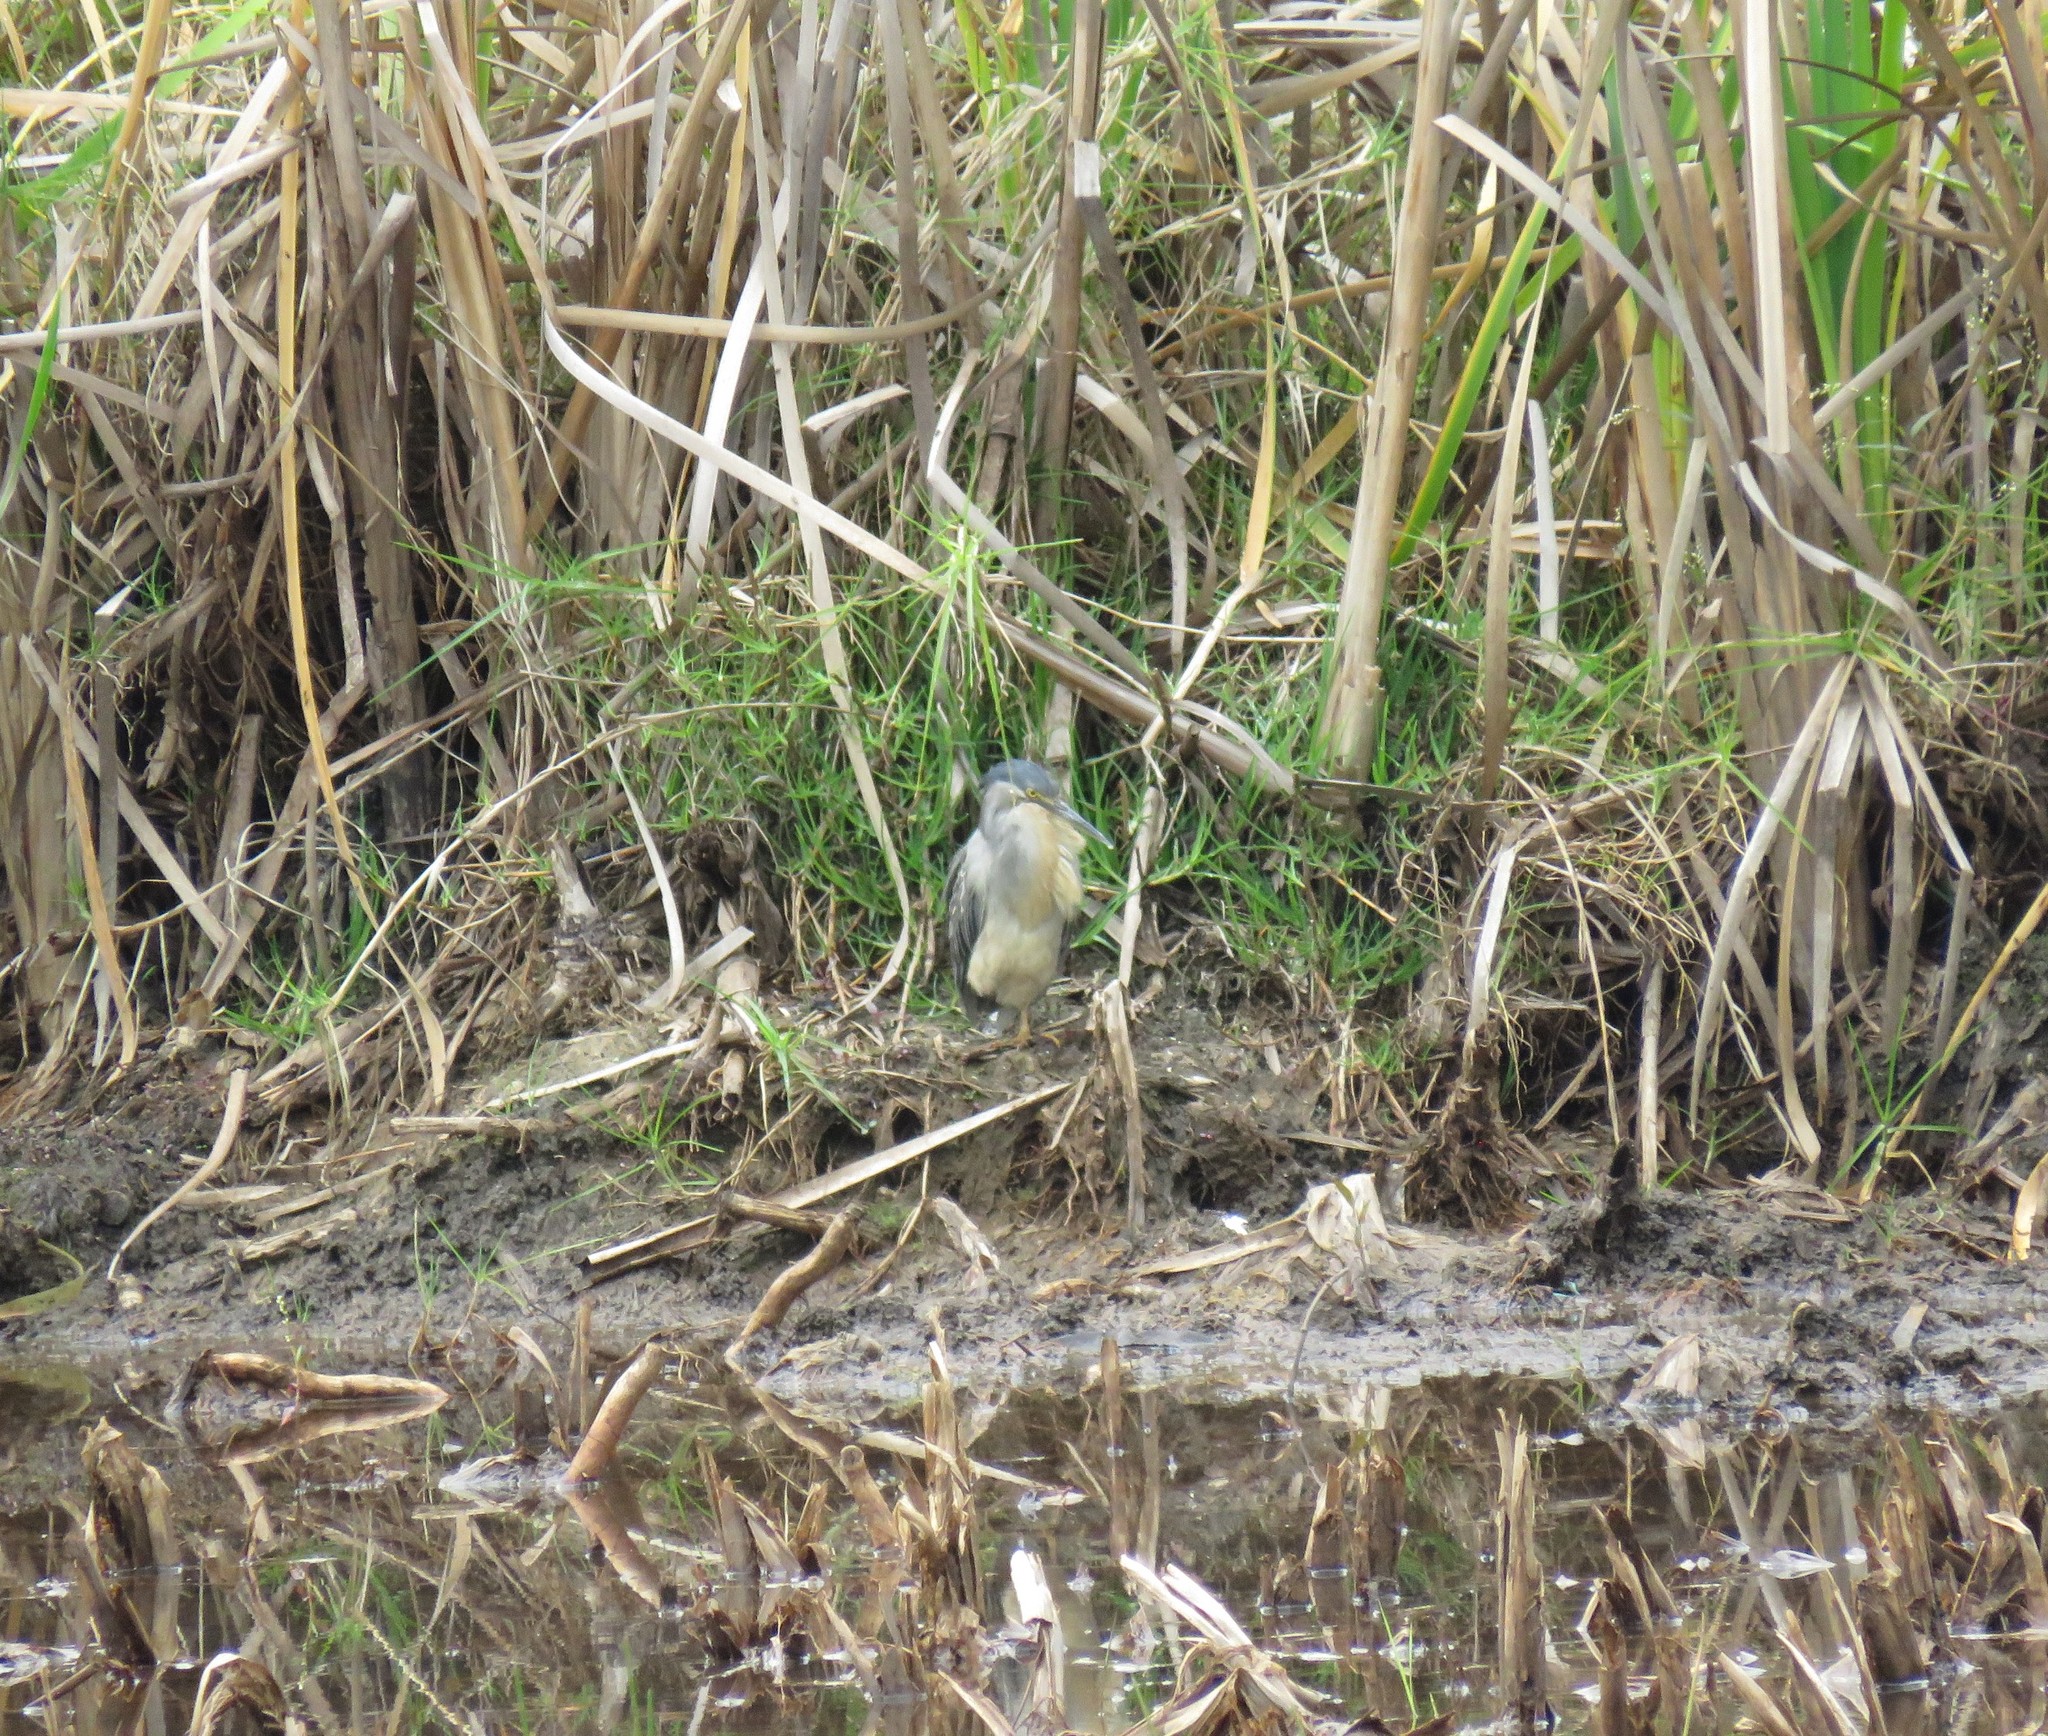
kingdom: Animalia
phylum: Chordata
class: Aves
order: Pelecaniformes
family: Ardeidae
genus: Butorides
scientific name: Butorides striata
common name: Striated heron
